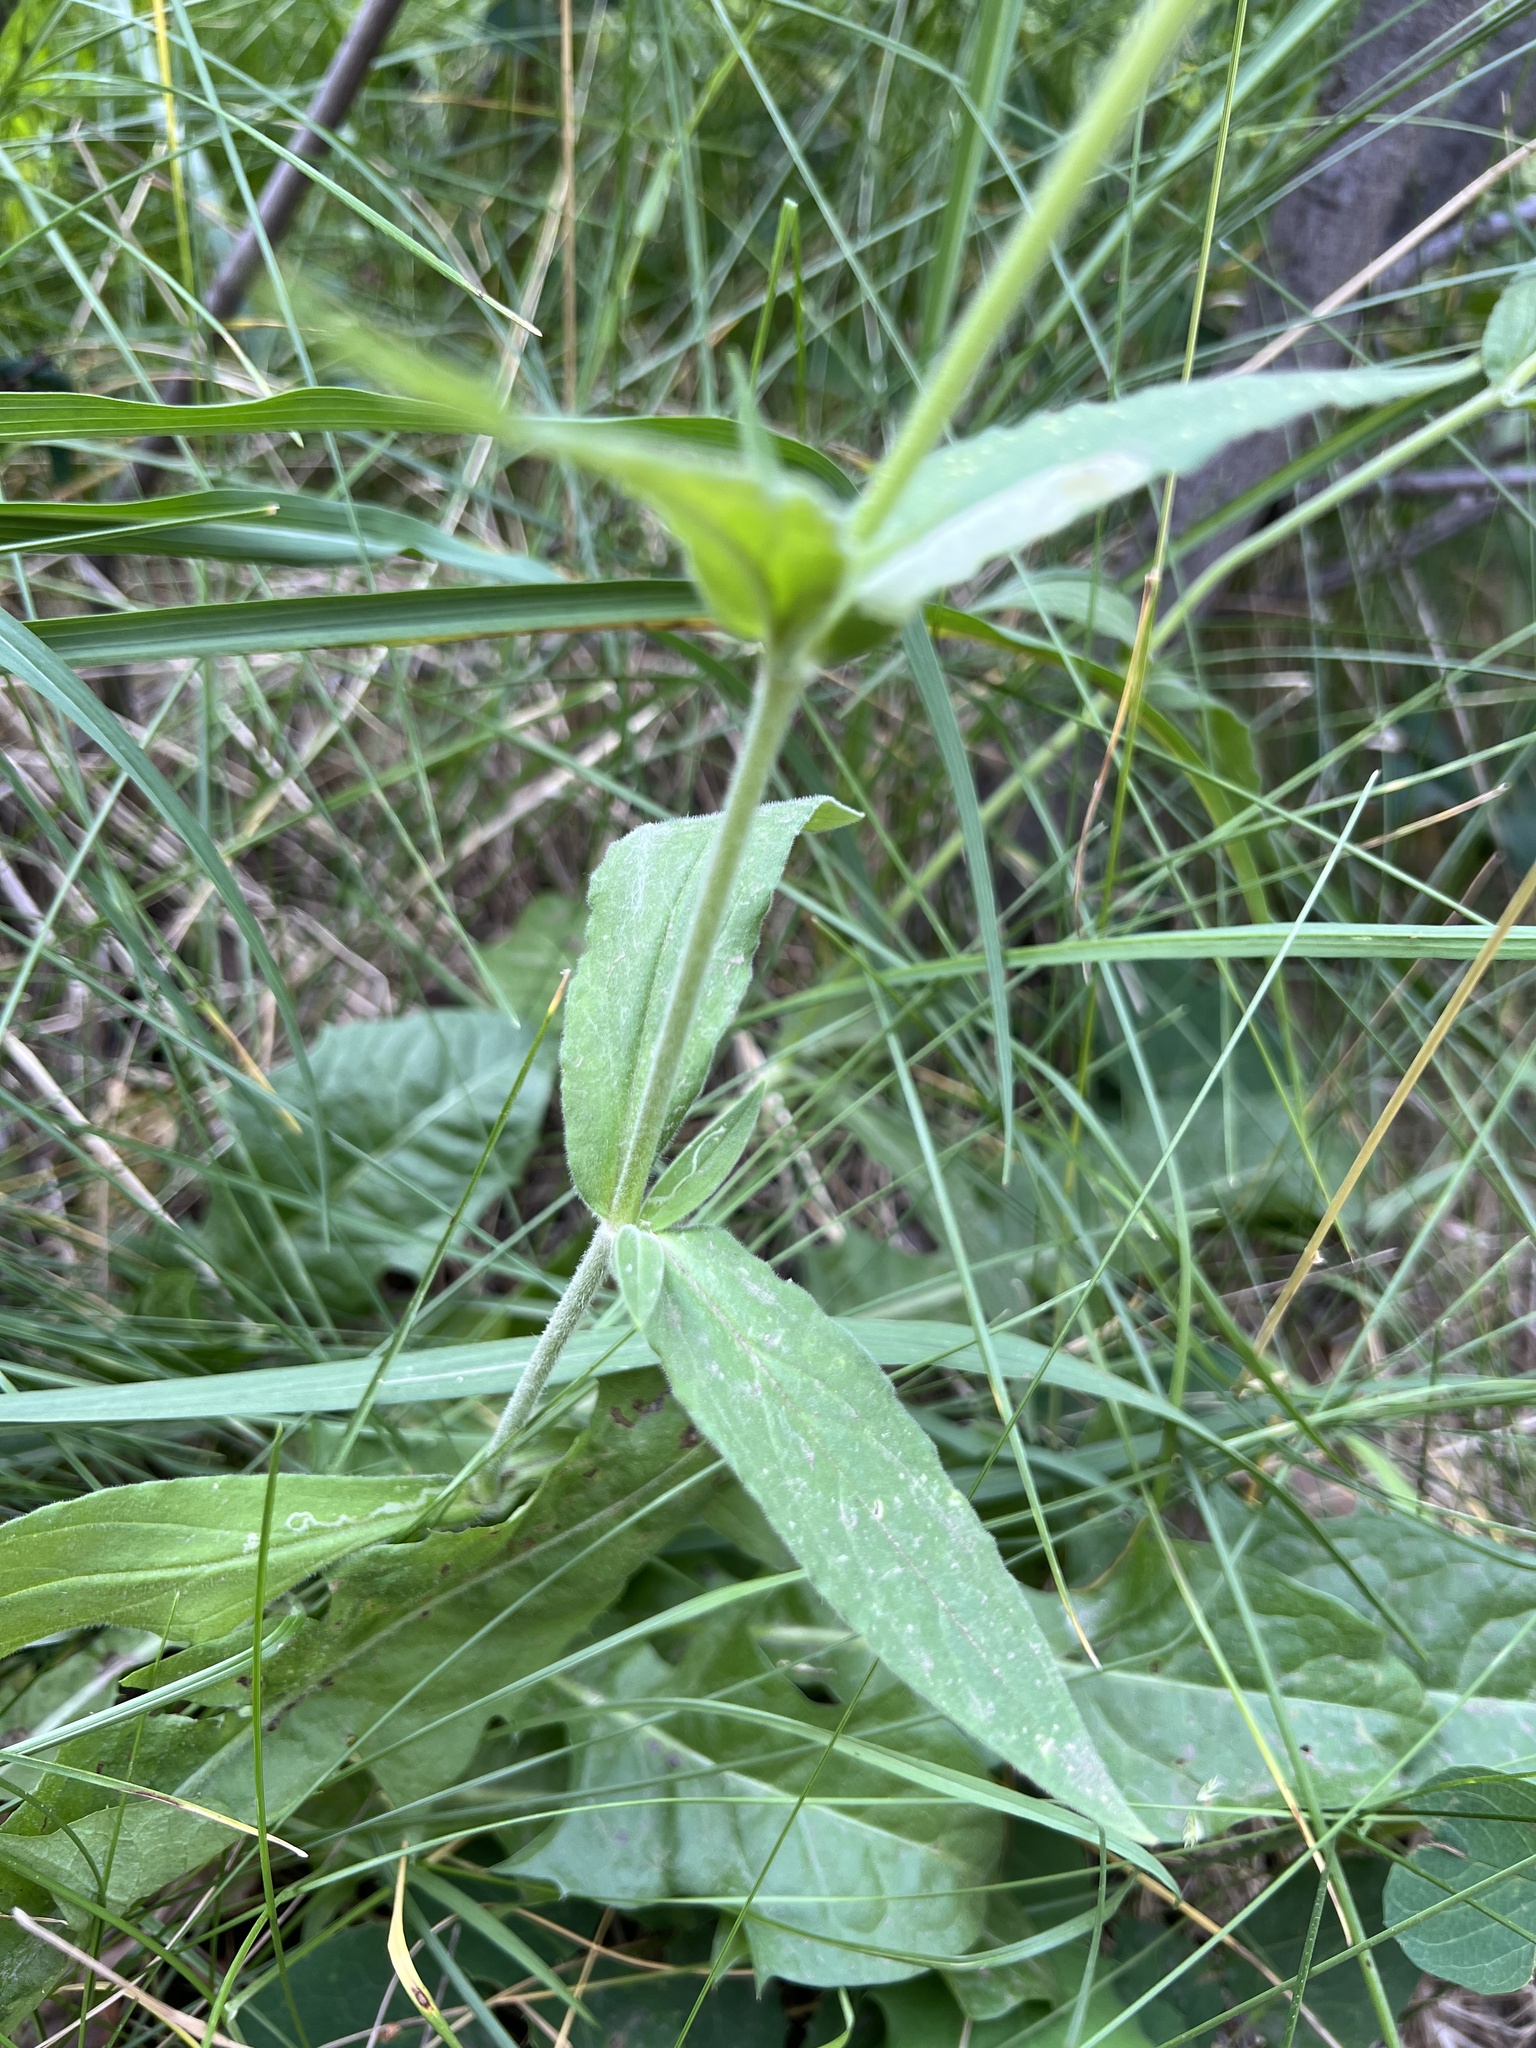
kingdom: Plantae
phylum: Tracheophyta
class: Magnoliopsida
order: Caryophyllales
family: Caryophyllaceae
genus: Silene
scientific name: Silene latifolia
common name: White campion
